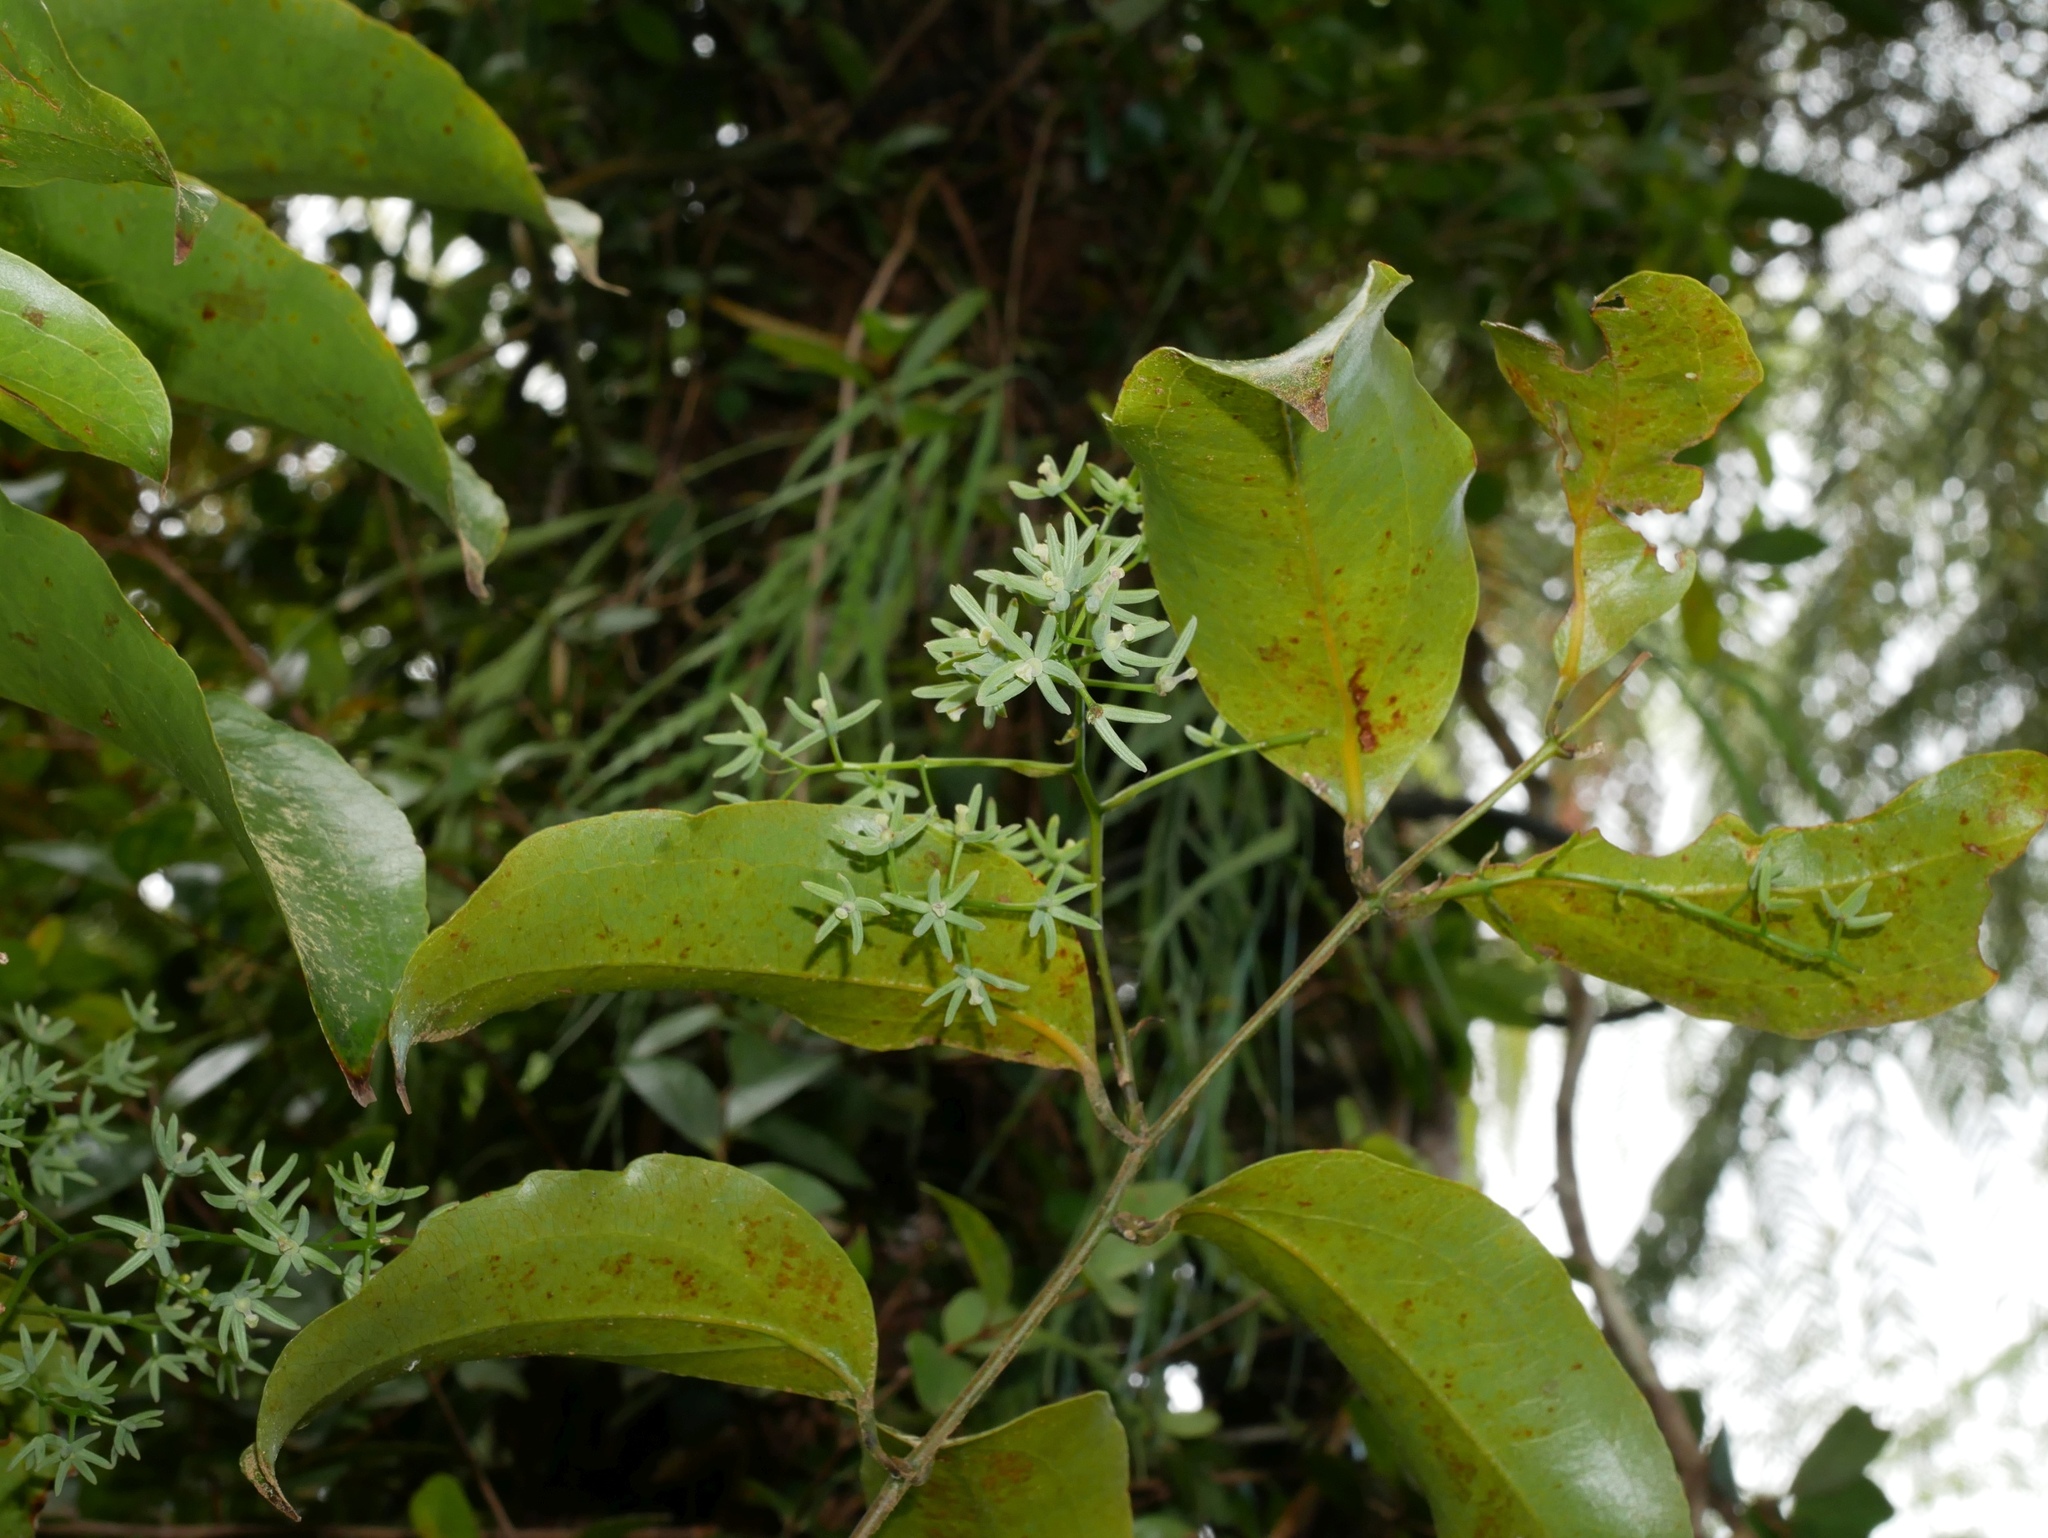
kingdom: Plantae
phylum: Tracheophyta
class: Liliopsida
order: Liliales
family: Ripogonaceae
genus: Ripogonum
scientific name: Ripogonum scandens
